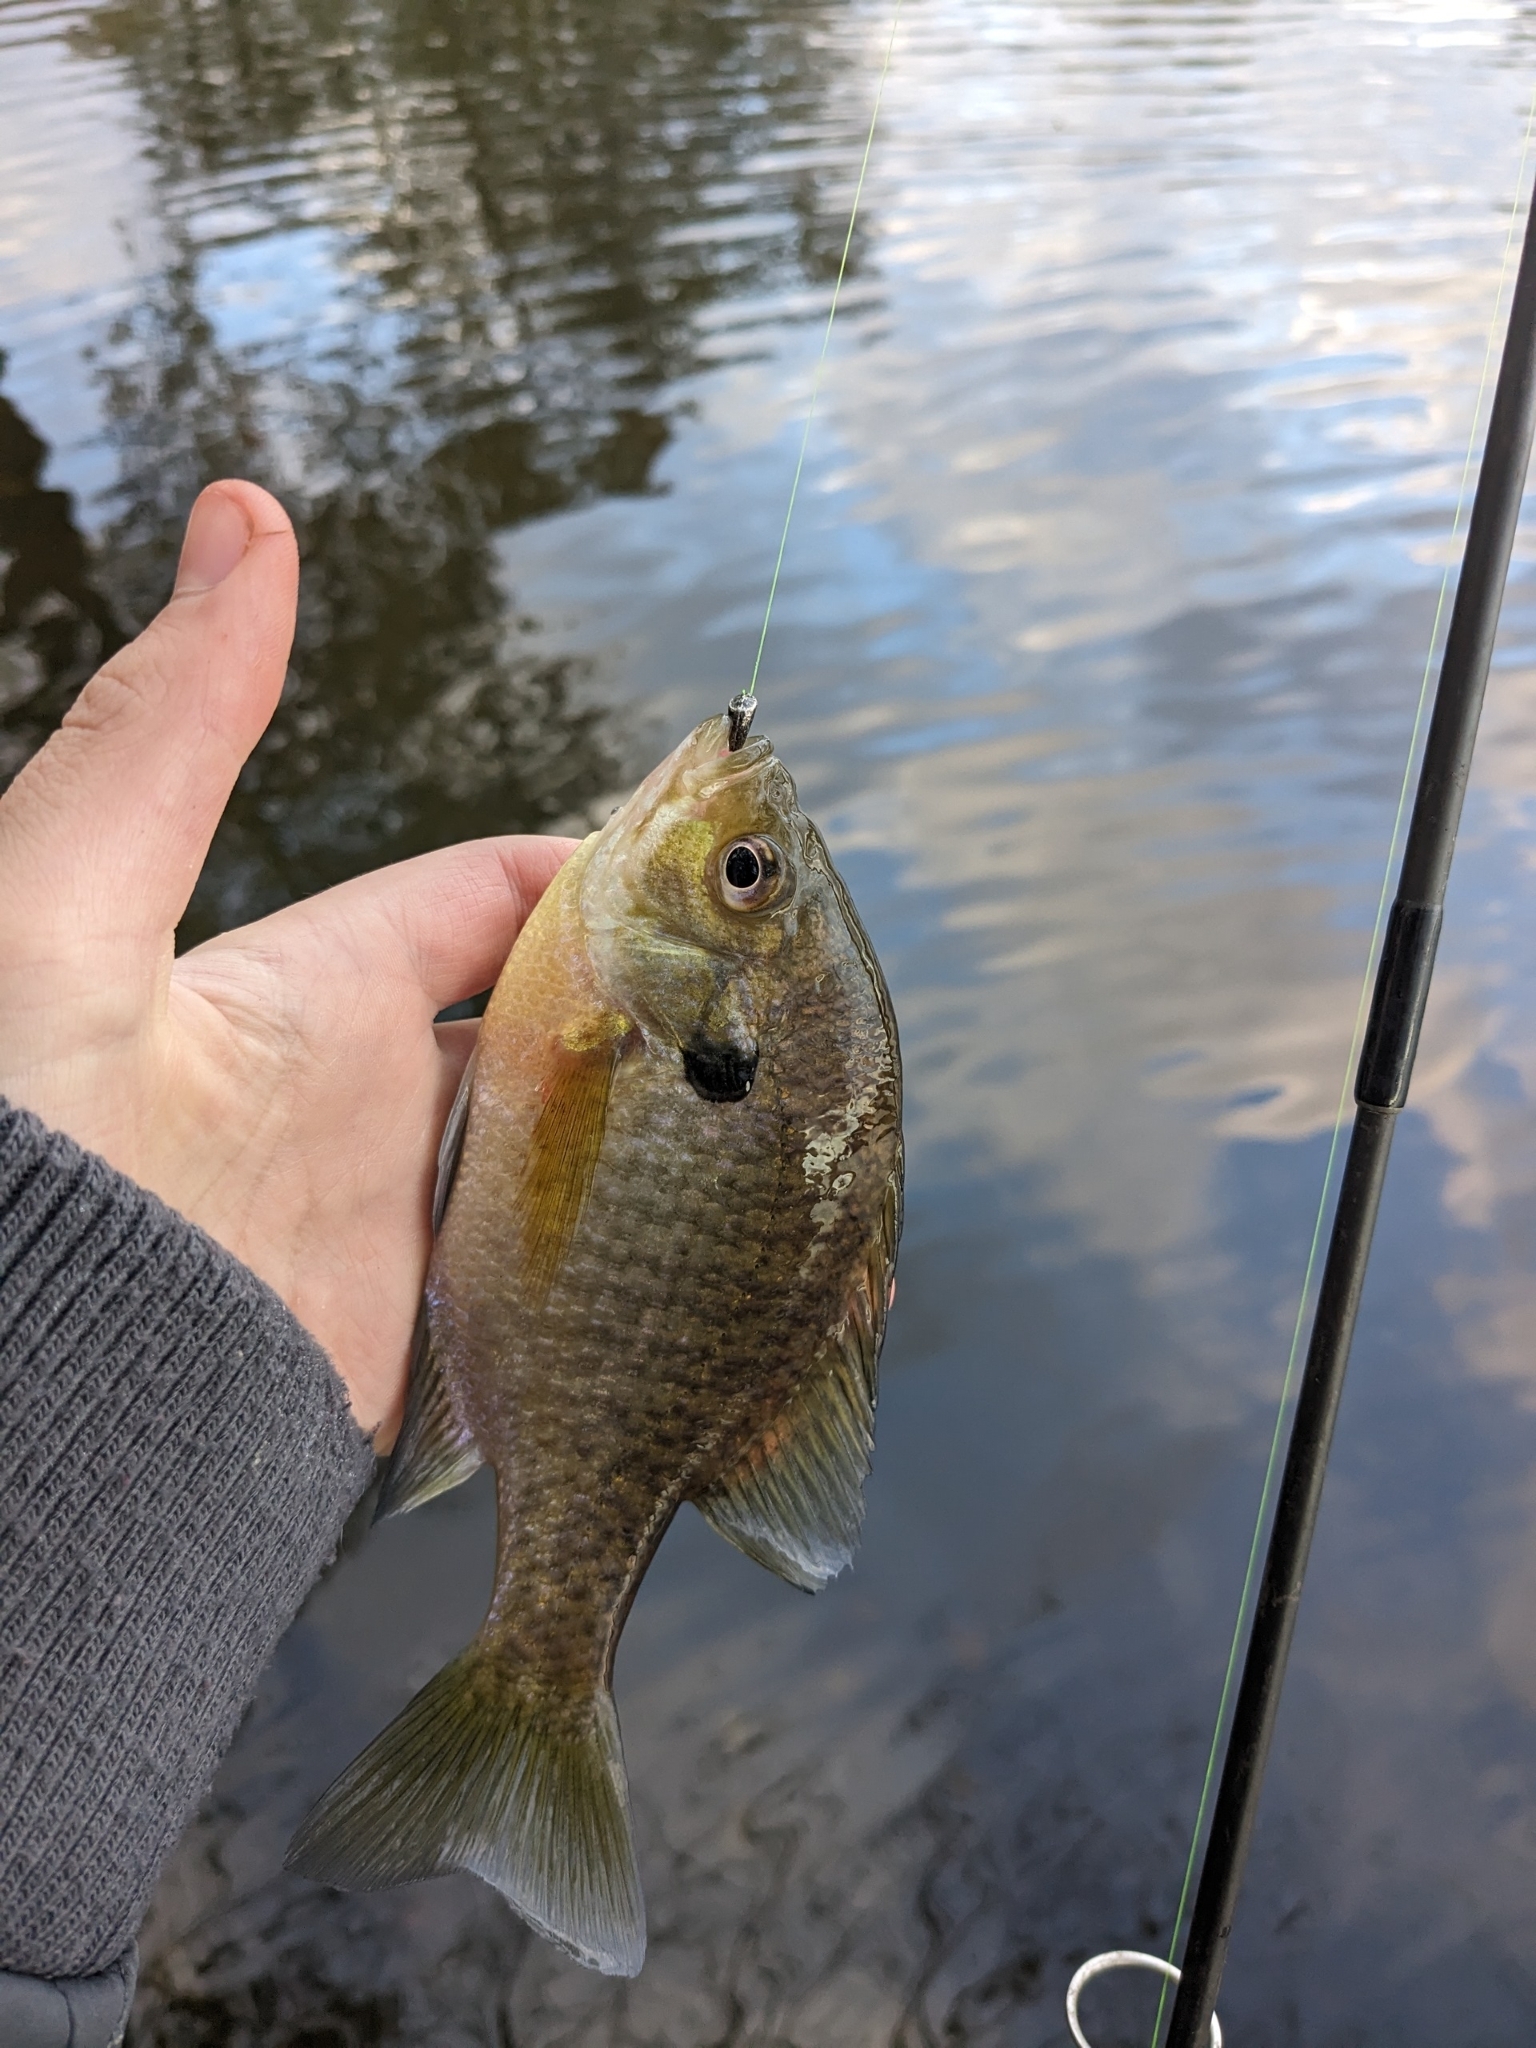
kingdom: Animalia
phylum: Chordata
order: Perciformes
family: Centrarchidae
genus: Lepomis
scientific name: Lepomis macrochirus
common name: Bluegill
